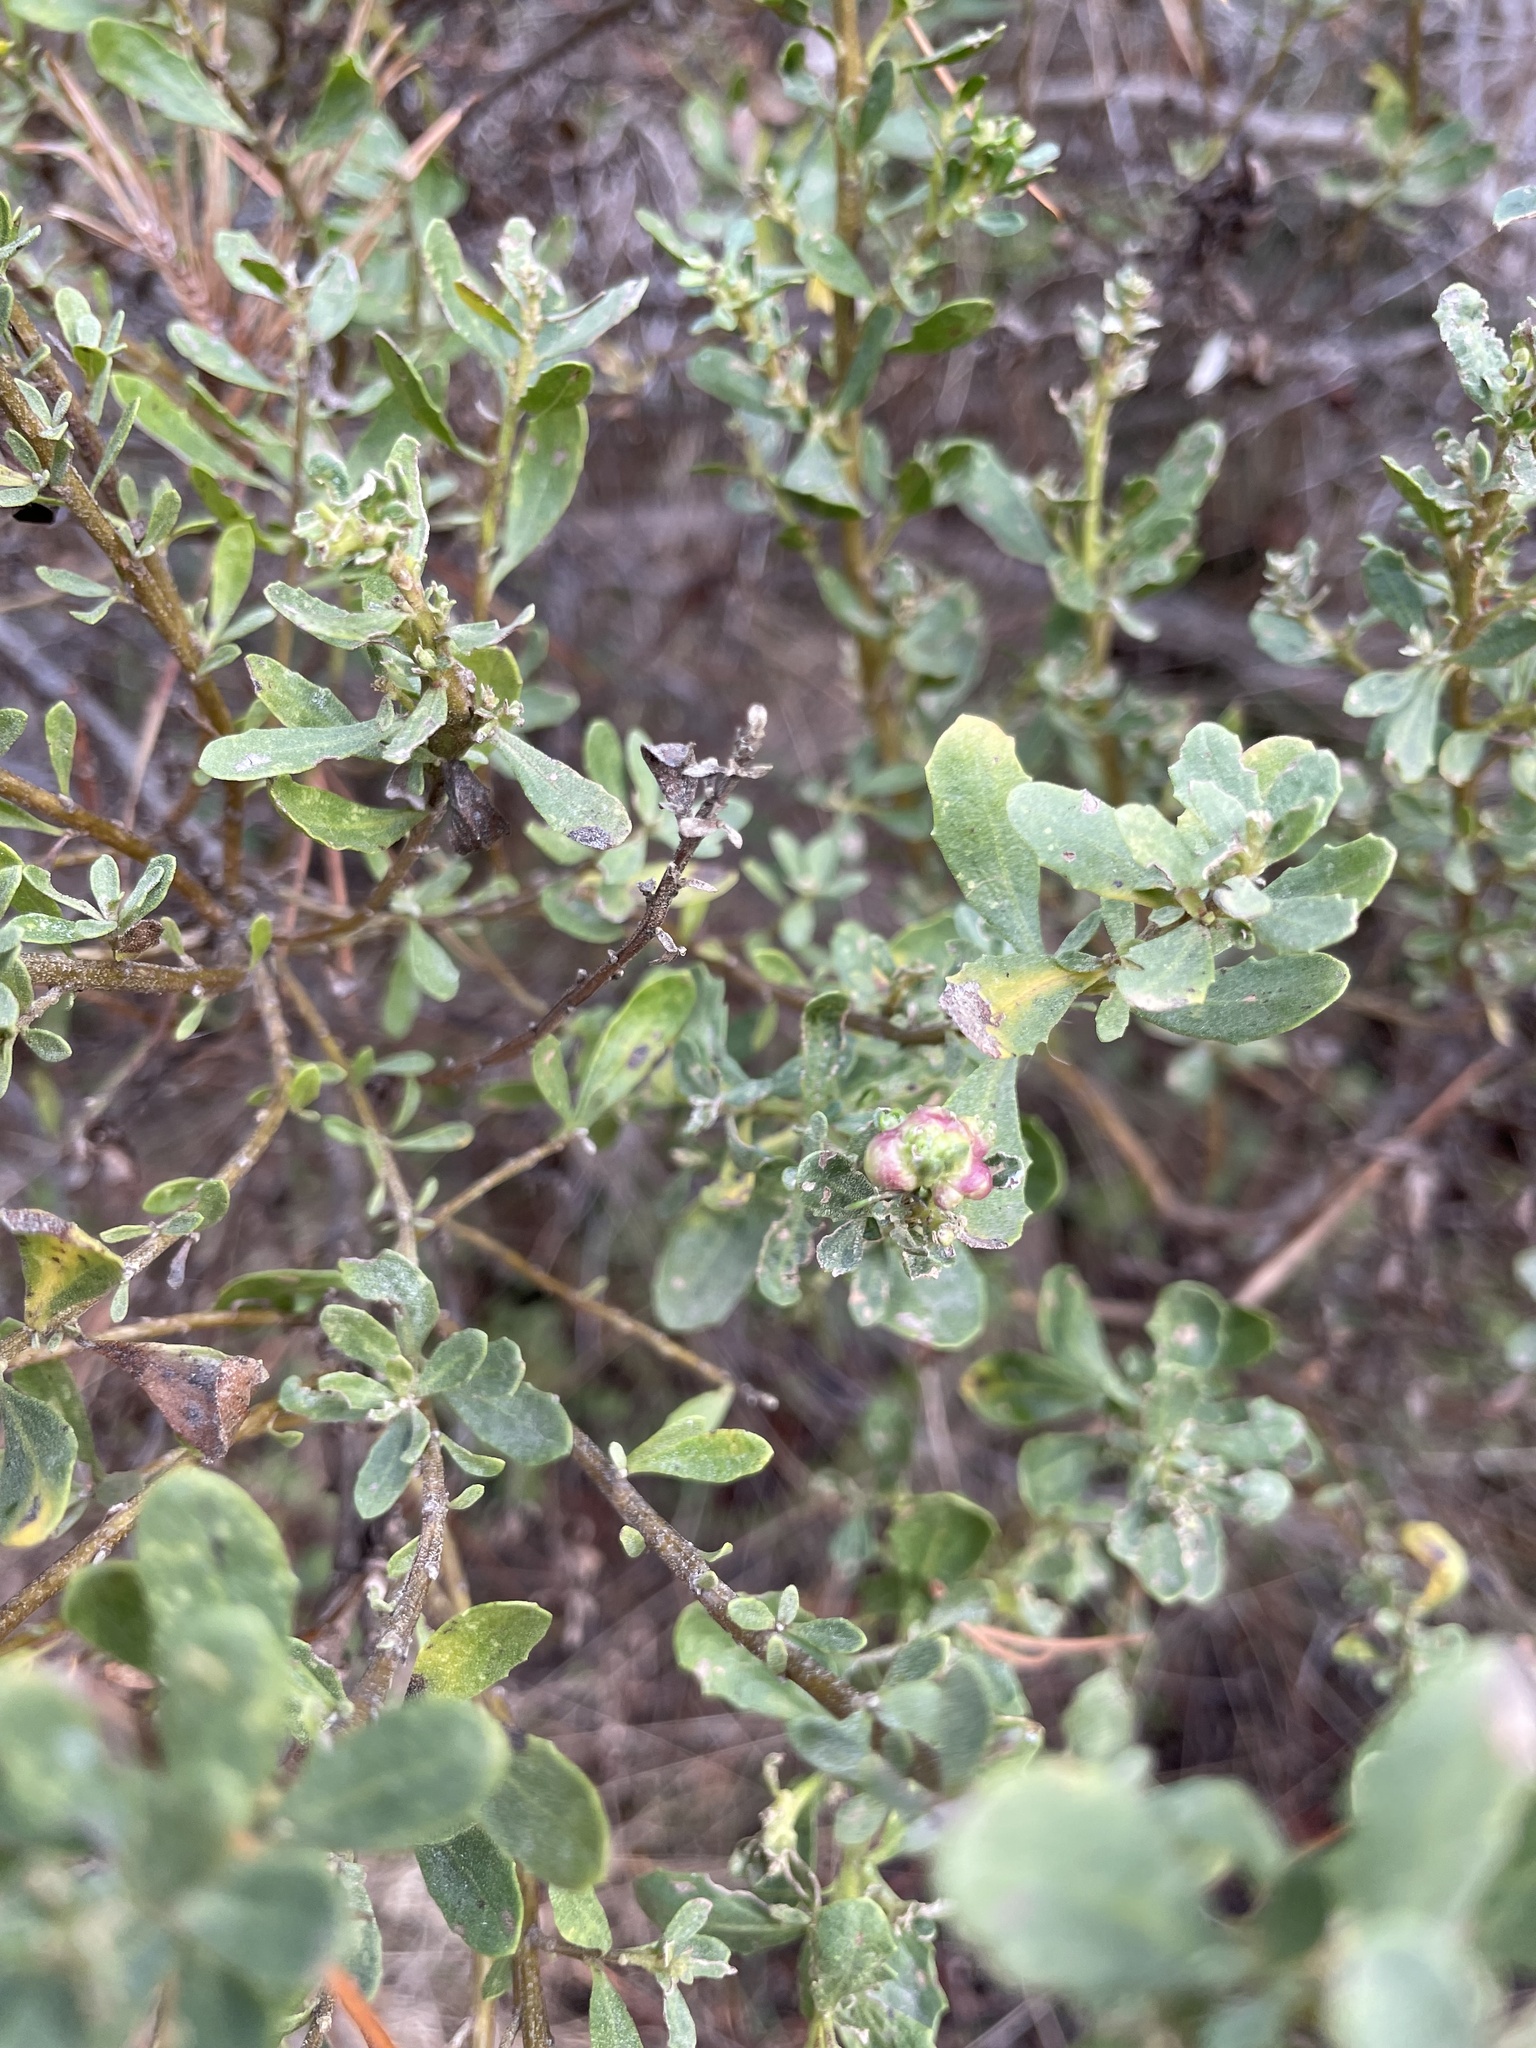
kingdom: Animalia
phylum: Arthropoda
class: Insecta
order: Diptera
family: Cecidomyiidae
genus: Rhopalomyia
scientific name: Rhopalomyia californica
